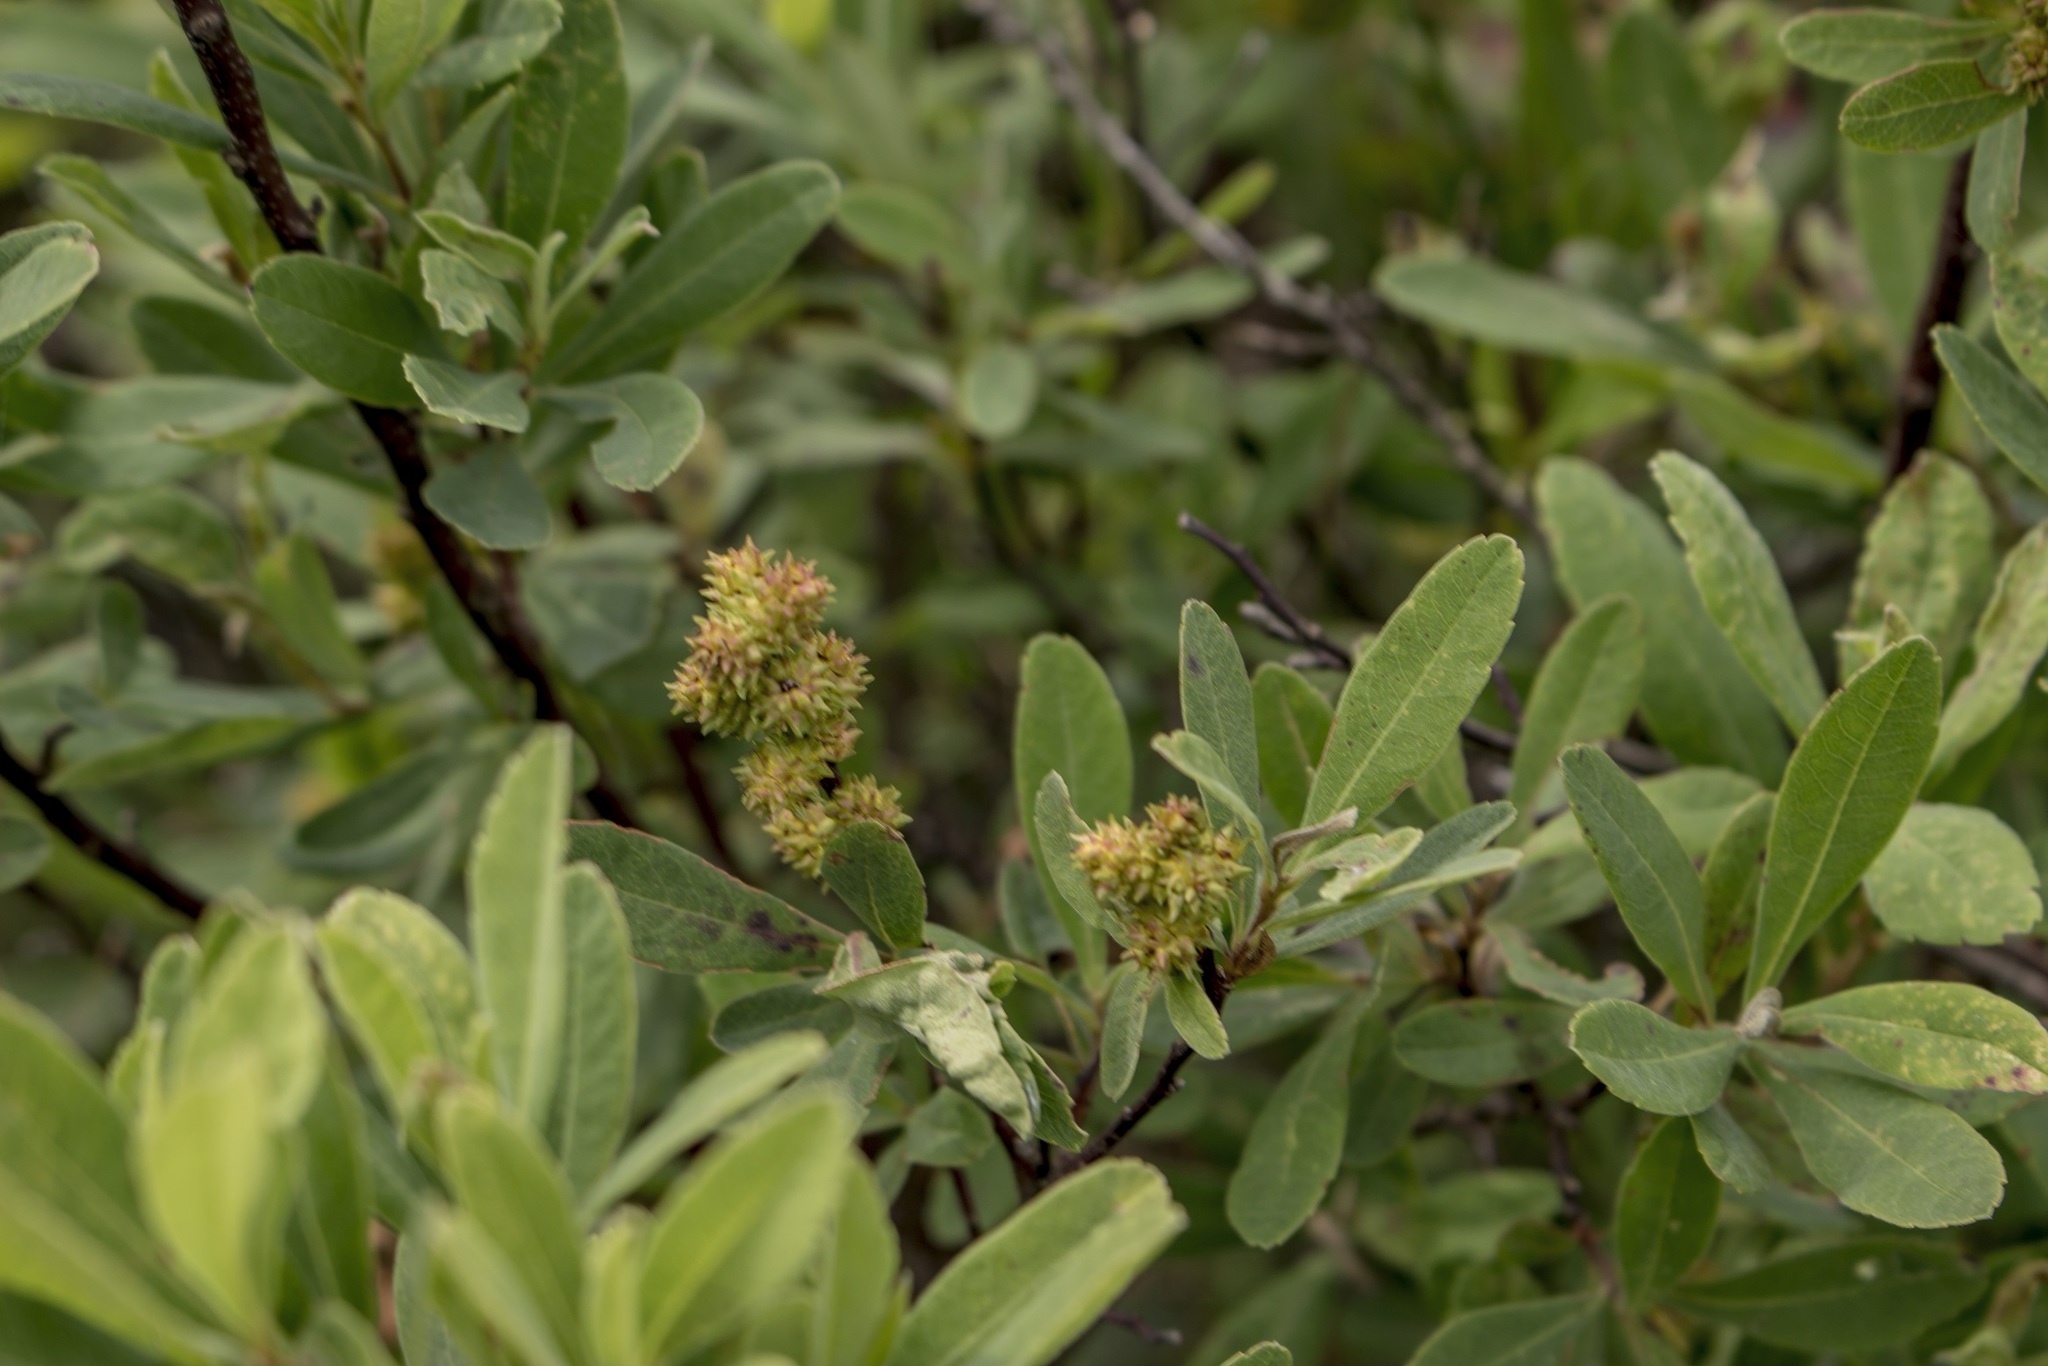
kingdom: Plantae
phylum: Tracheophyta
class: Magnoliopsida
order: Fagales
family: Myricaceae
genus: Myrica
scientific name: Myrica gale
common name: Sweet gale
